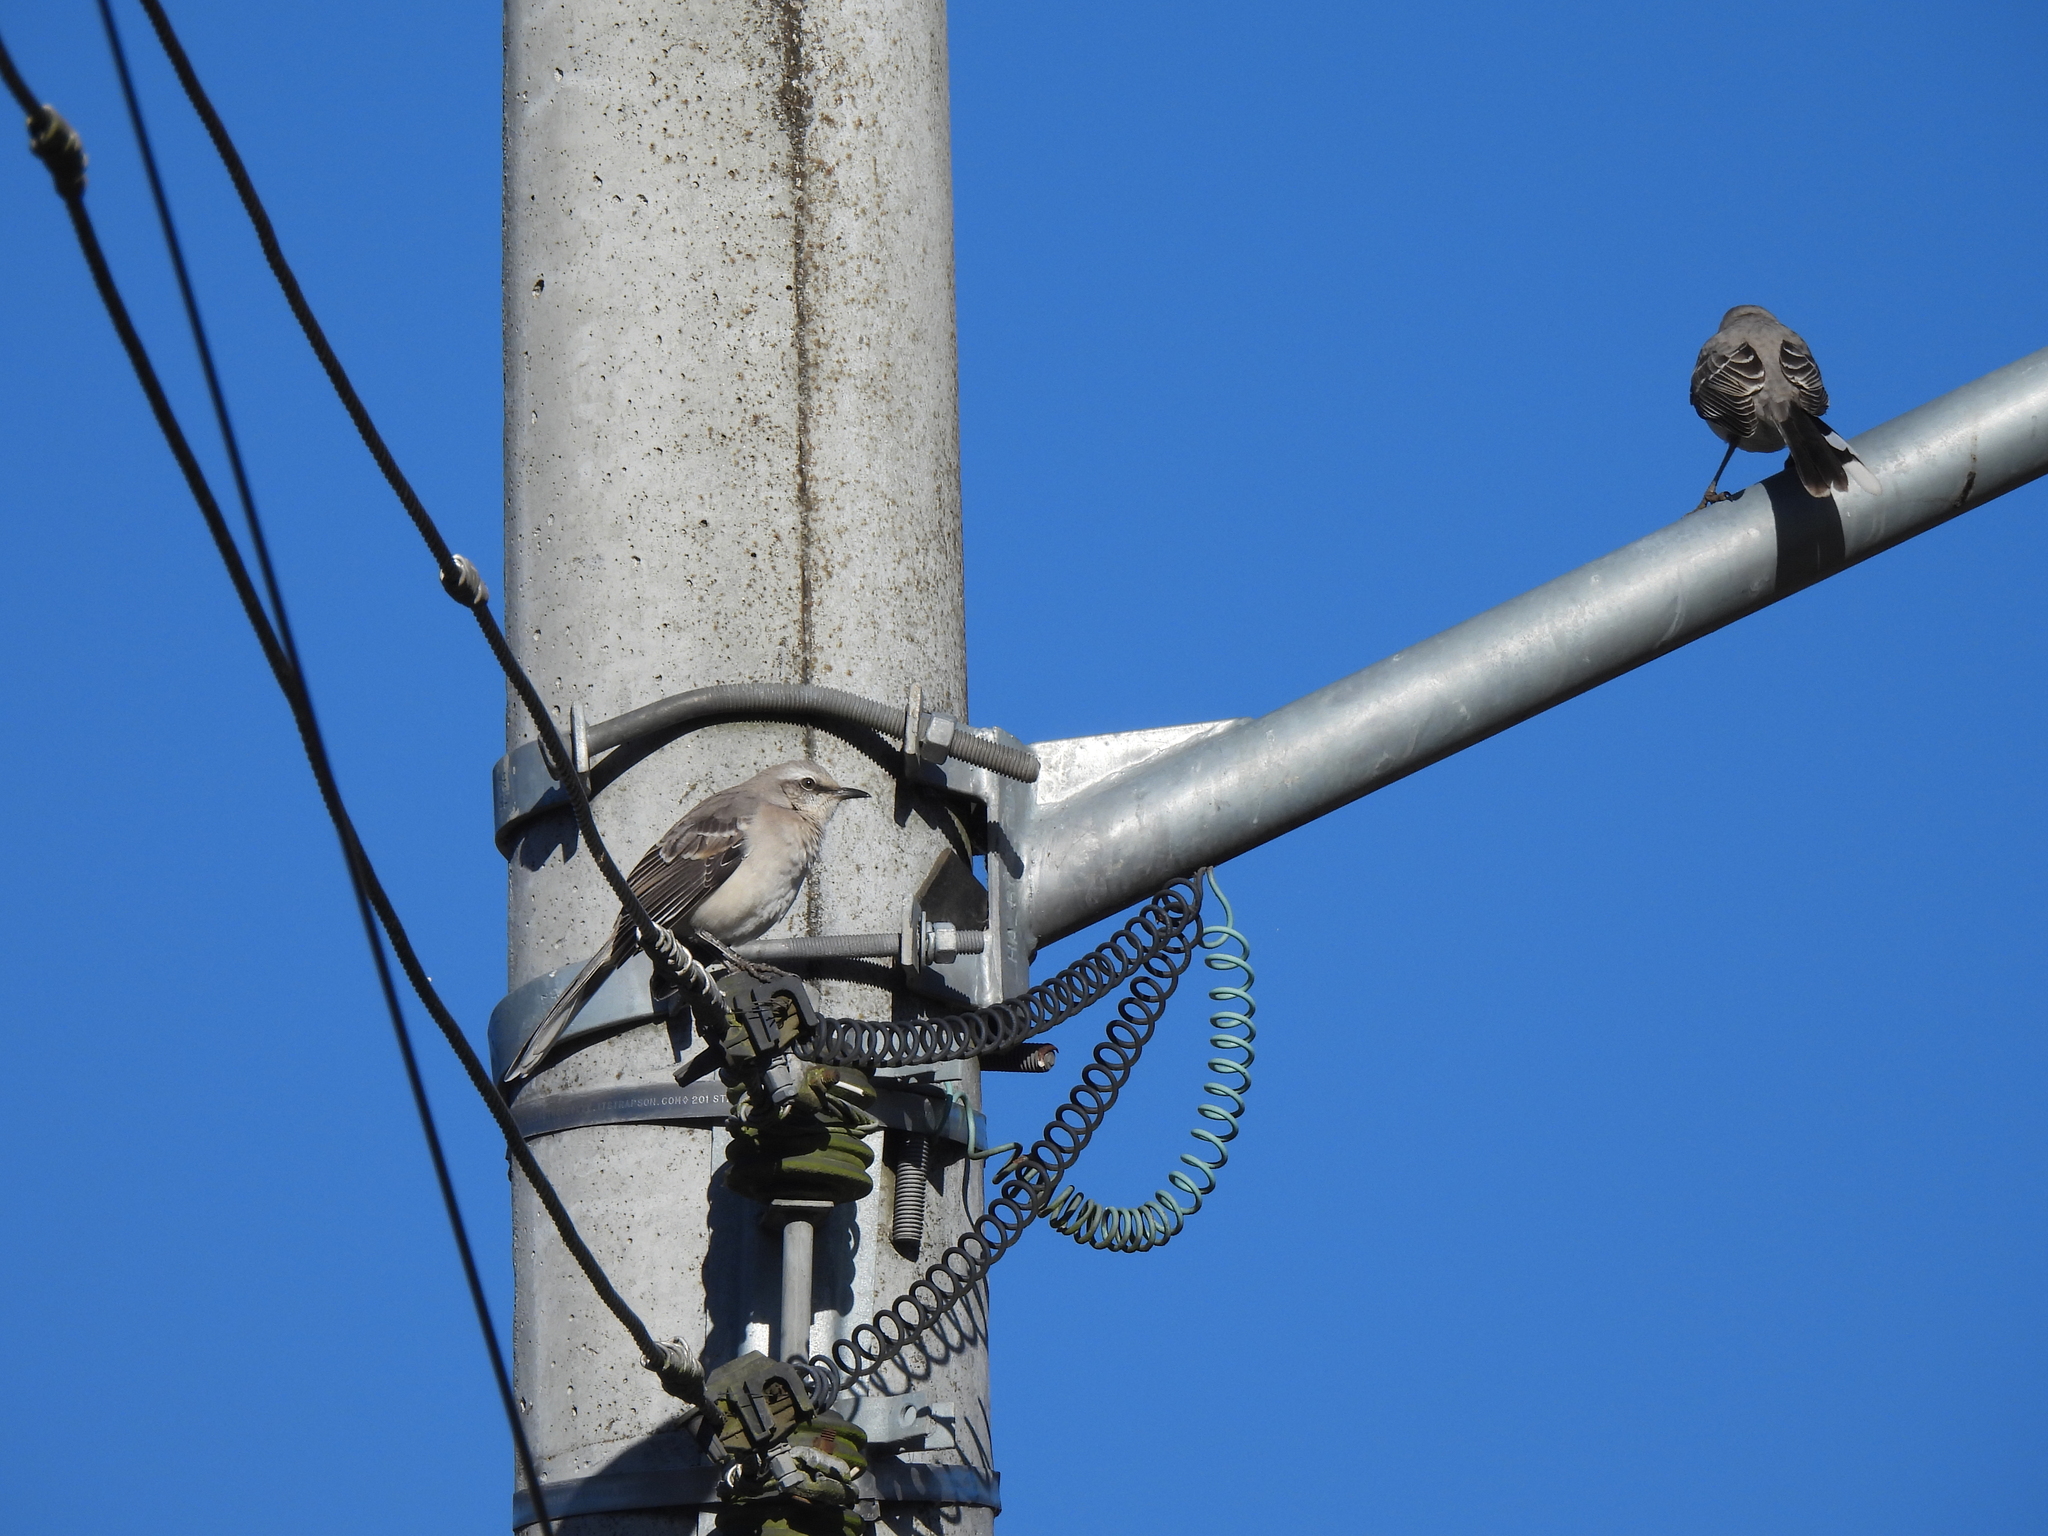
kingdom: Animalia
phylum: Chordata
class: Aves
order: Passeriformes
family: Mimidae
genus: Mimus
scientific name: Mimus gilvus
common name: Tropical mockingbird
